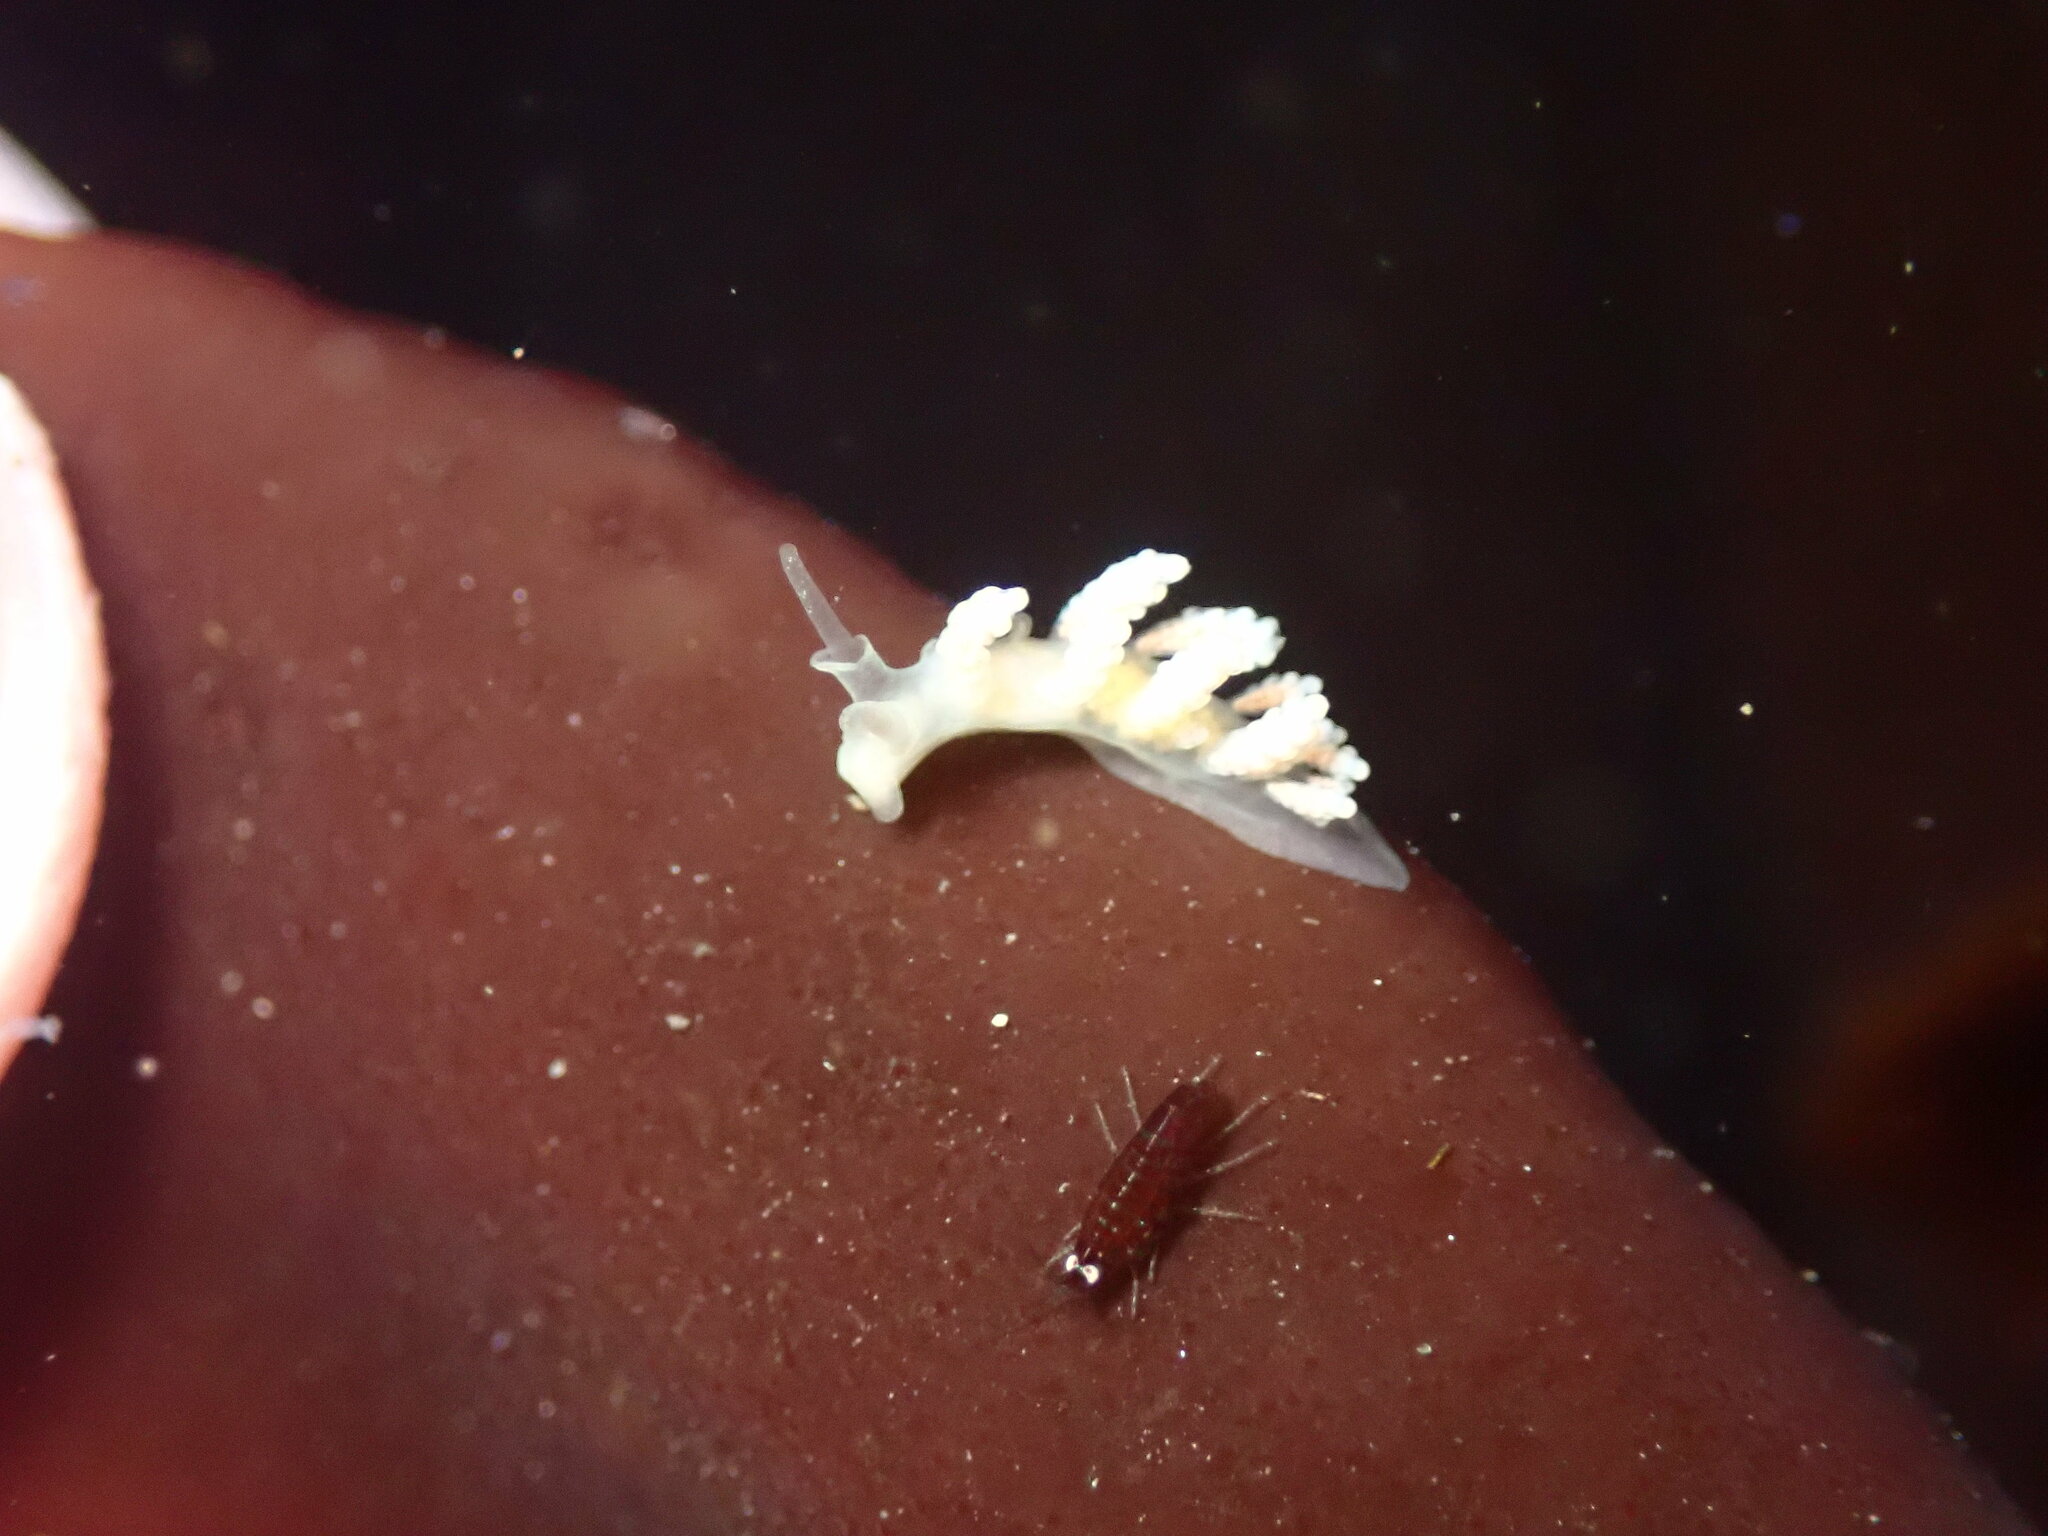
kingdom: Animalia
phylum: Mollusca
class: Gastropoda
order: Nudibranchia
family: Dotidae
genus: Doto
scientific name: Doto amyra
